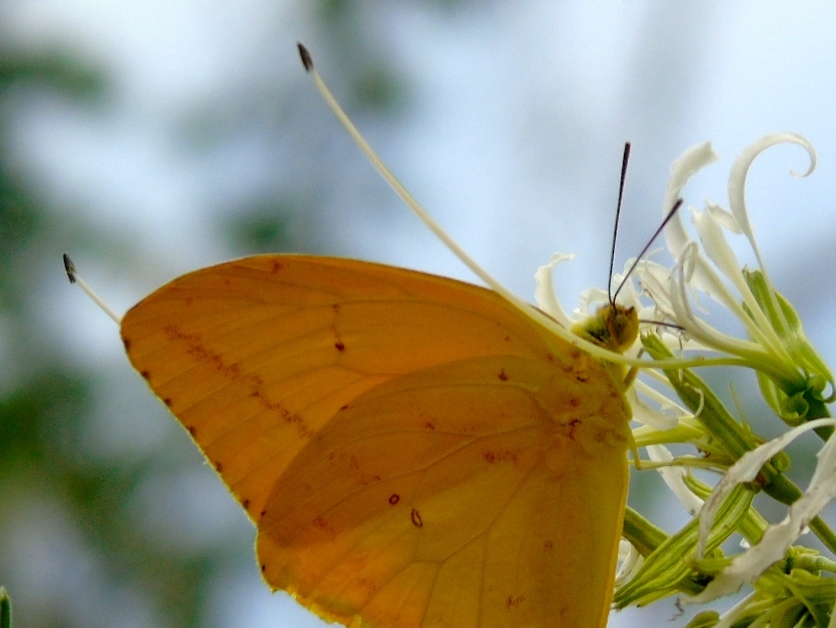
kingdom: Animalia
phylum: Arthropoda
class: Insecta
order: Lepidoptera
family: Pieridae
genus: Phoebis
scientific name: Phoebis agarithe
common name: Large orange sulphur
